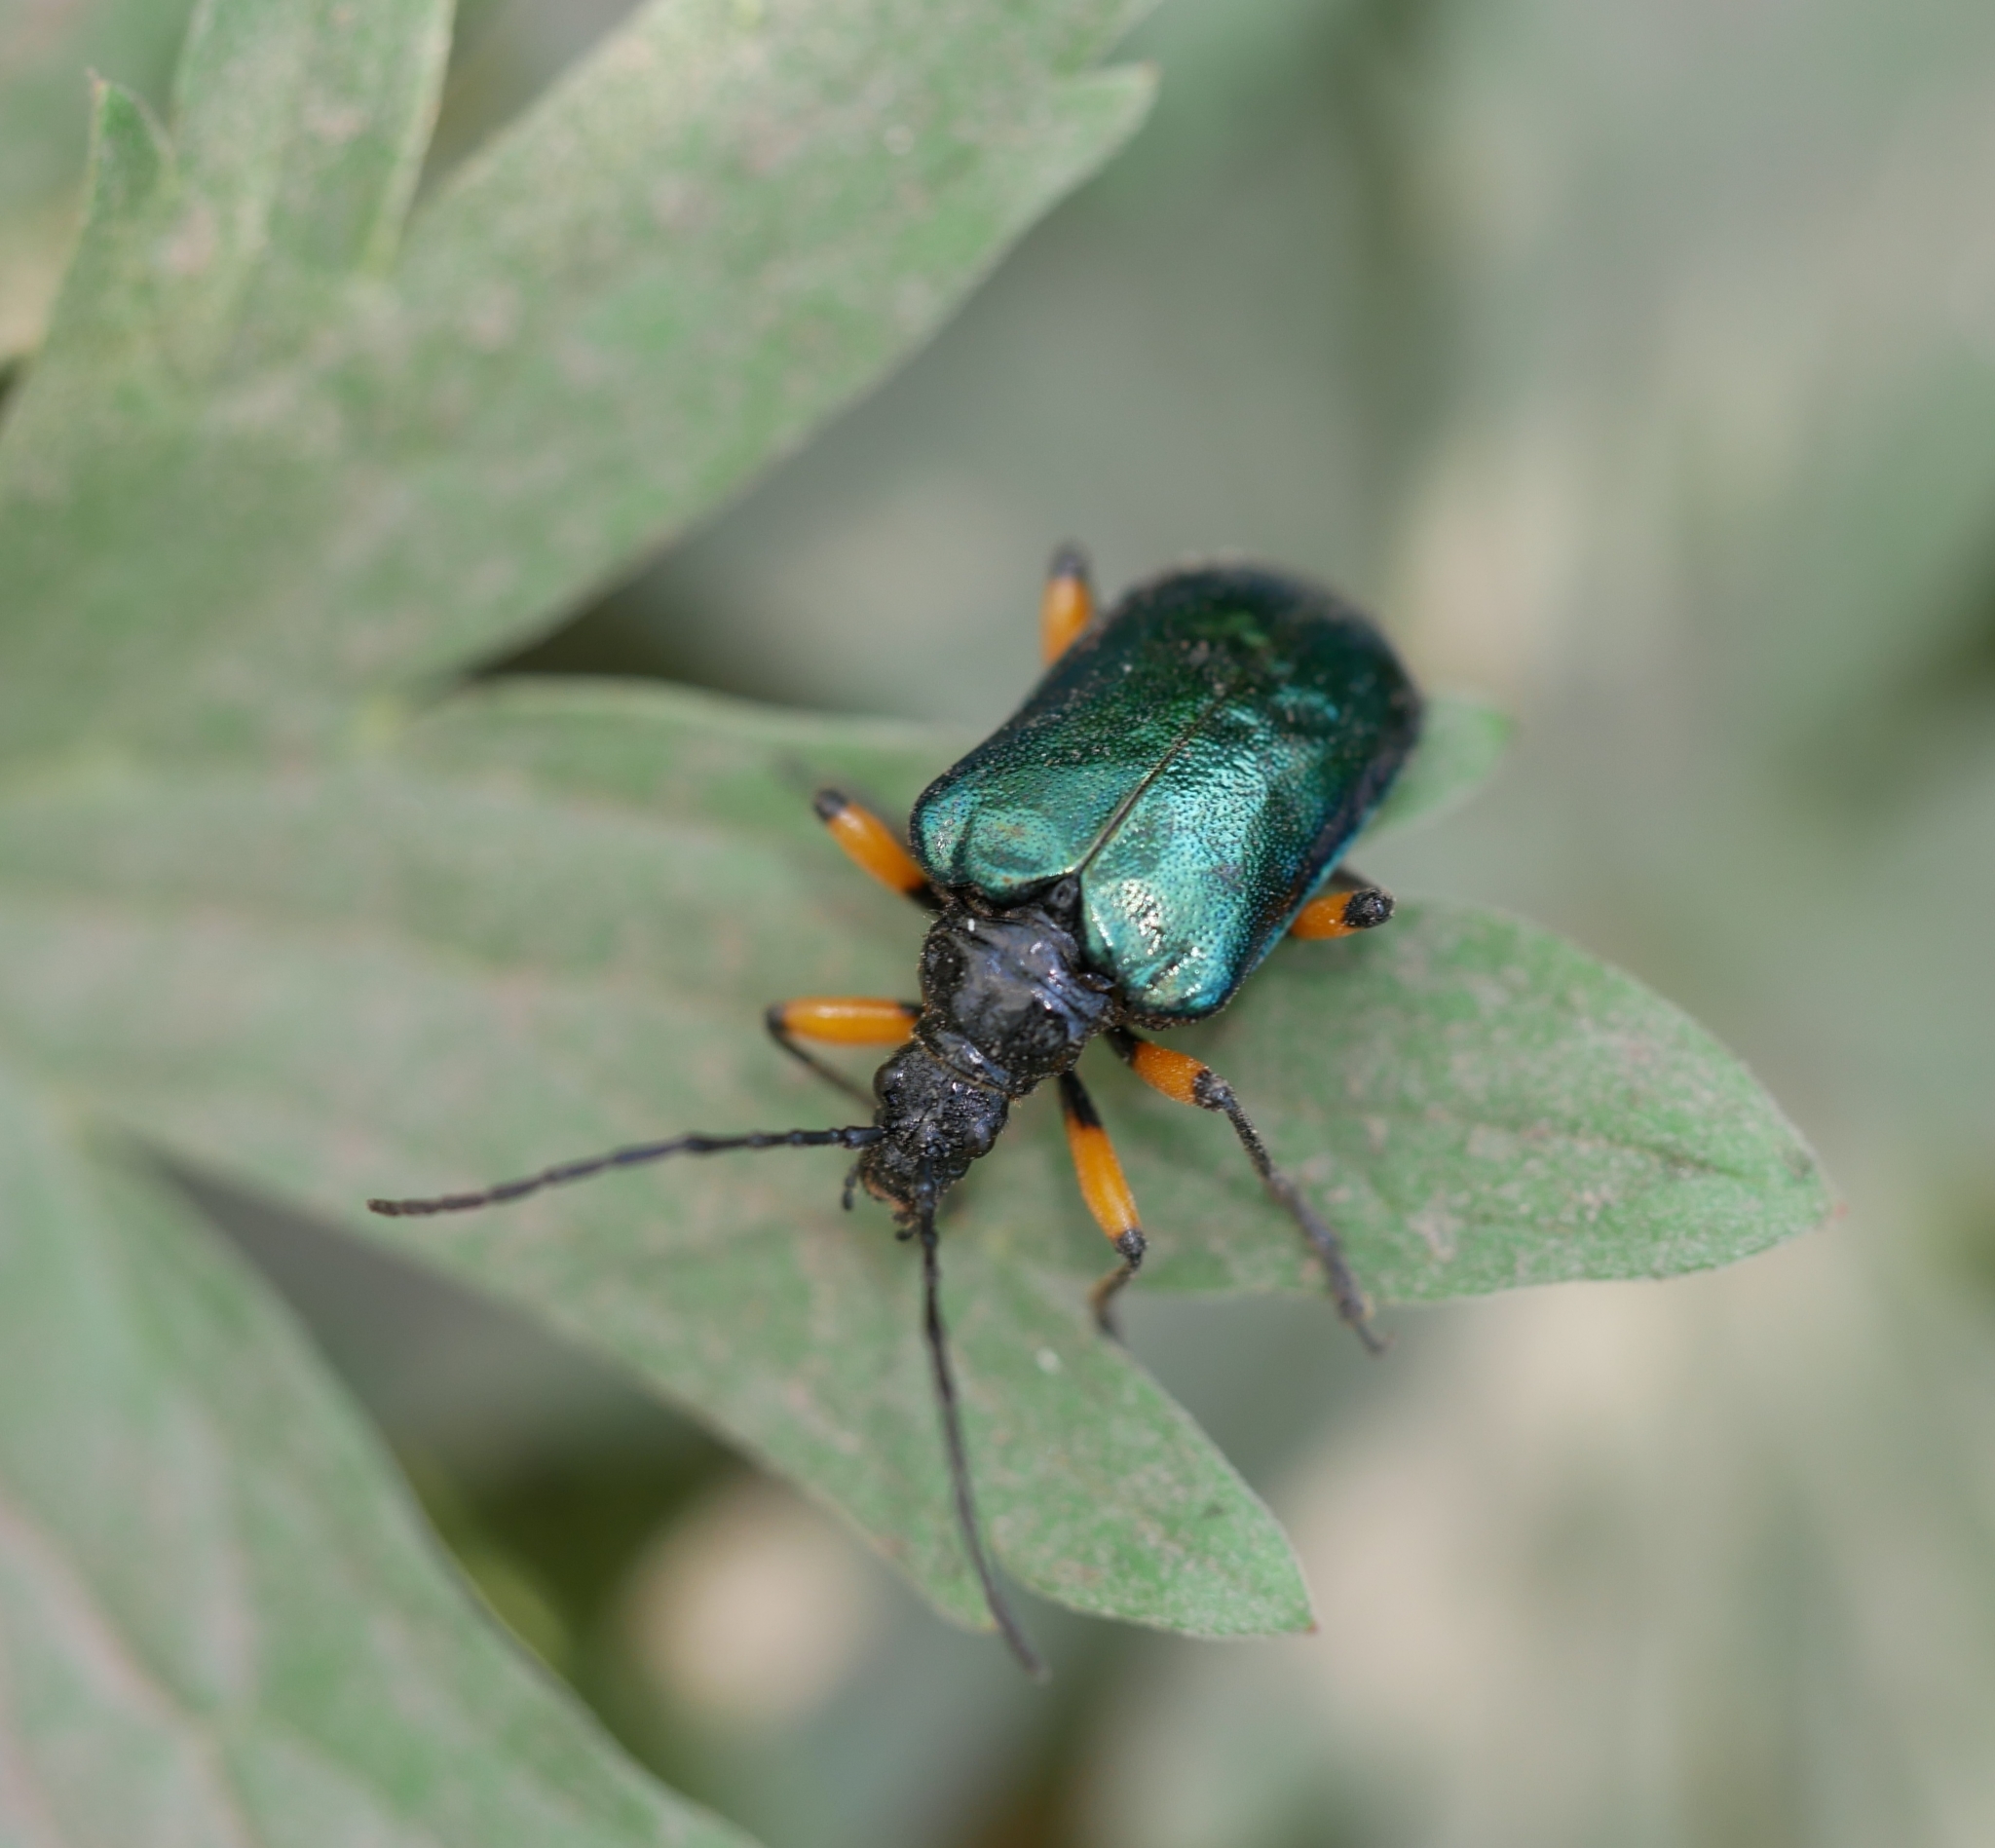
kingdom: Animalia
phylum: Arthropoda
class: Insecta
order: Coleoptera
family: Cerambycidae
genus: Pseudogaurotina
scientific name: Pseudogaurotina cressoni
